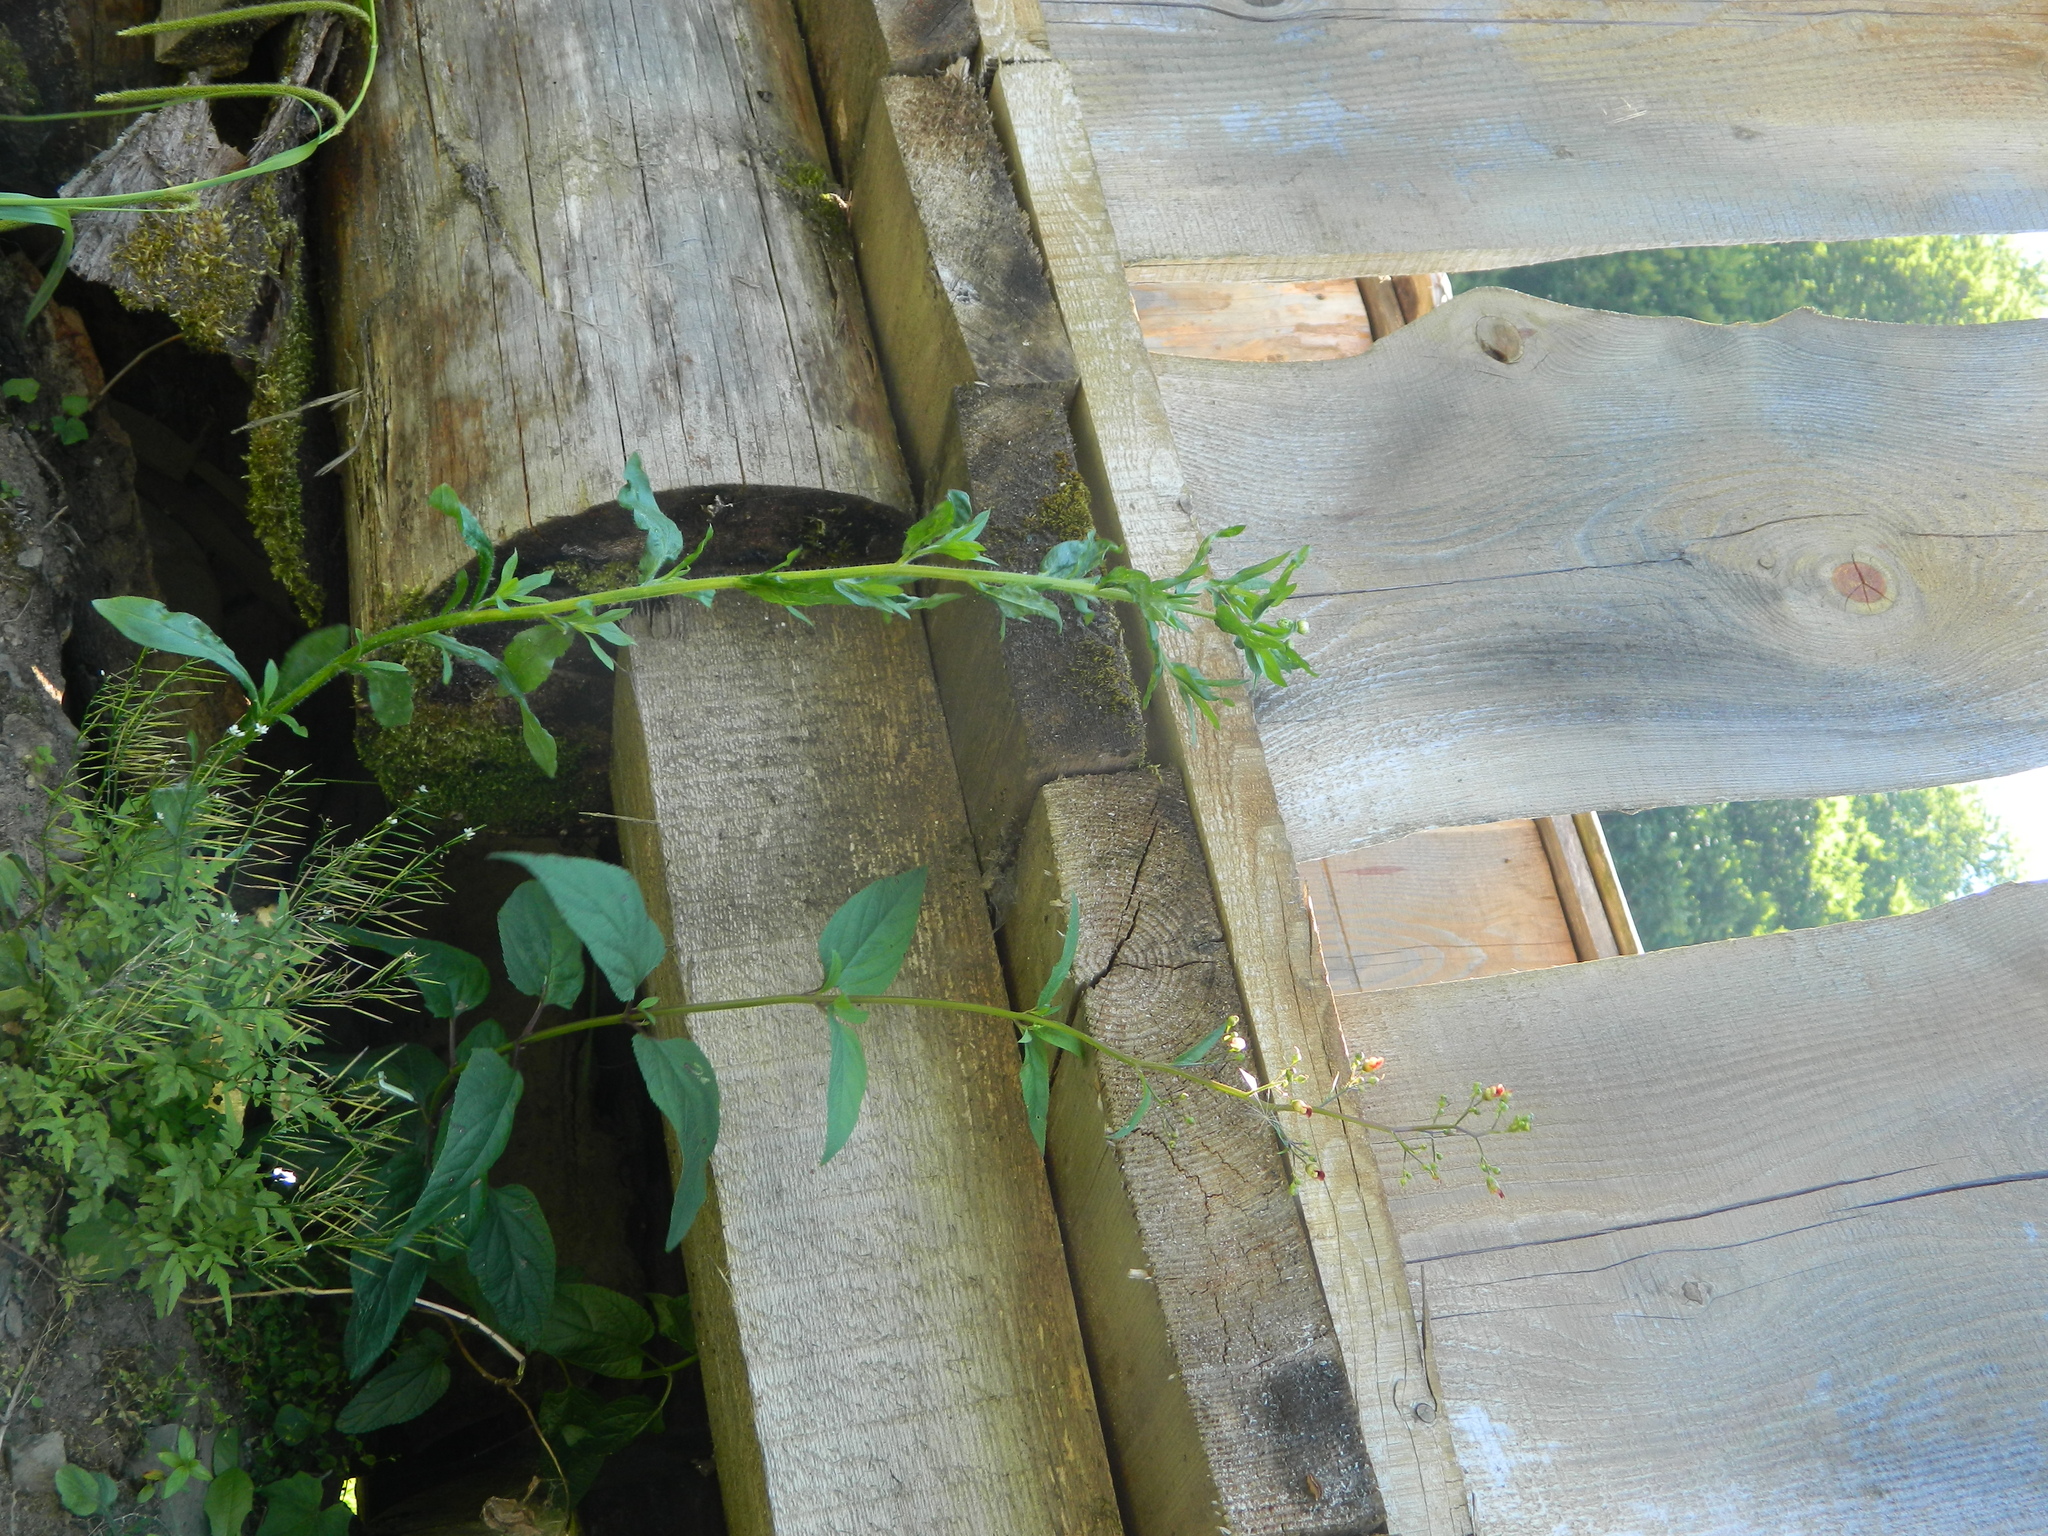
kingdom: Plantae
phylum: Tracheophyta
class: Magnoliopsida
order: Lamiales
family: Scrophulariaceae
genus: Scrophularia
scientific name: Scrophularia nodosa
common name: Common figwort
